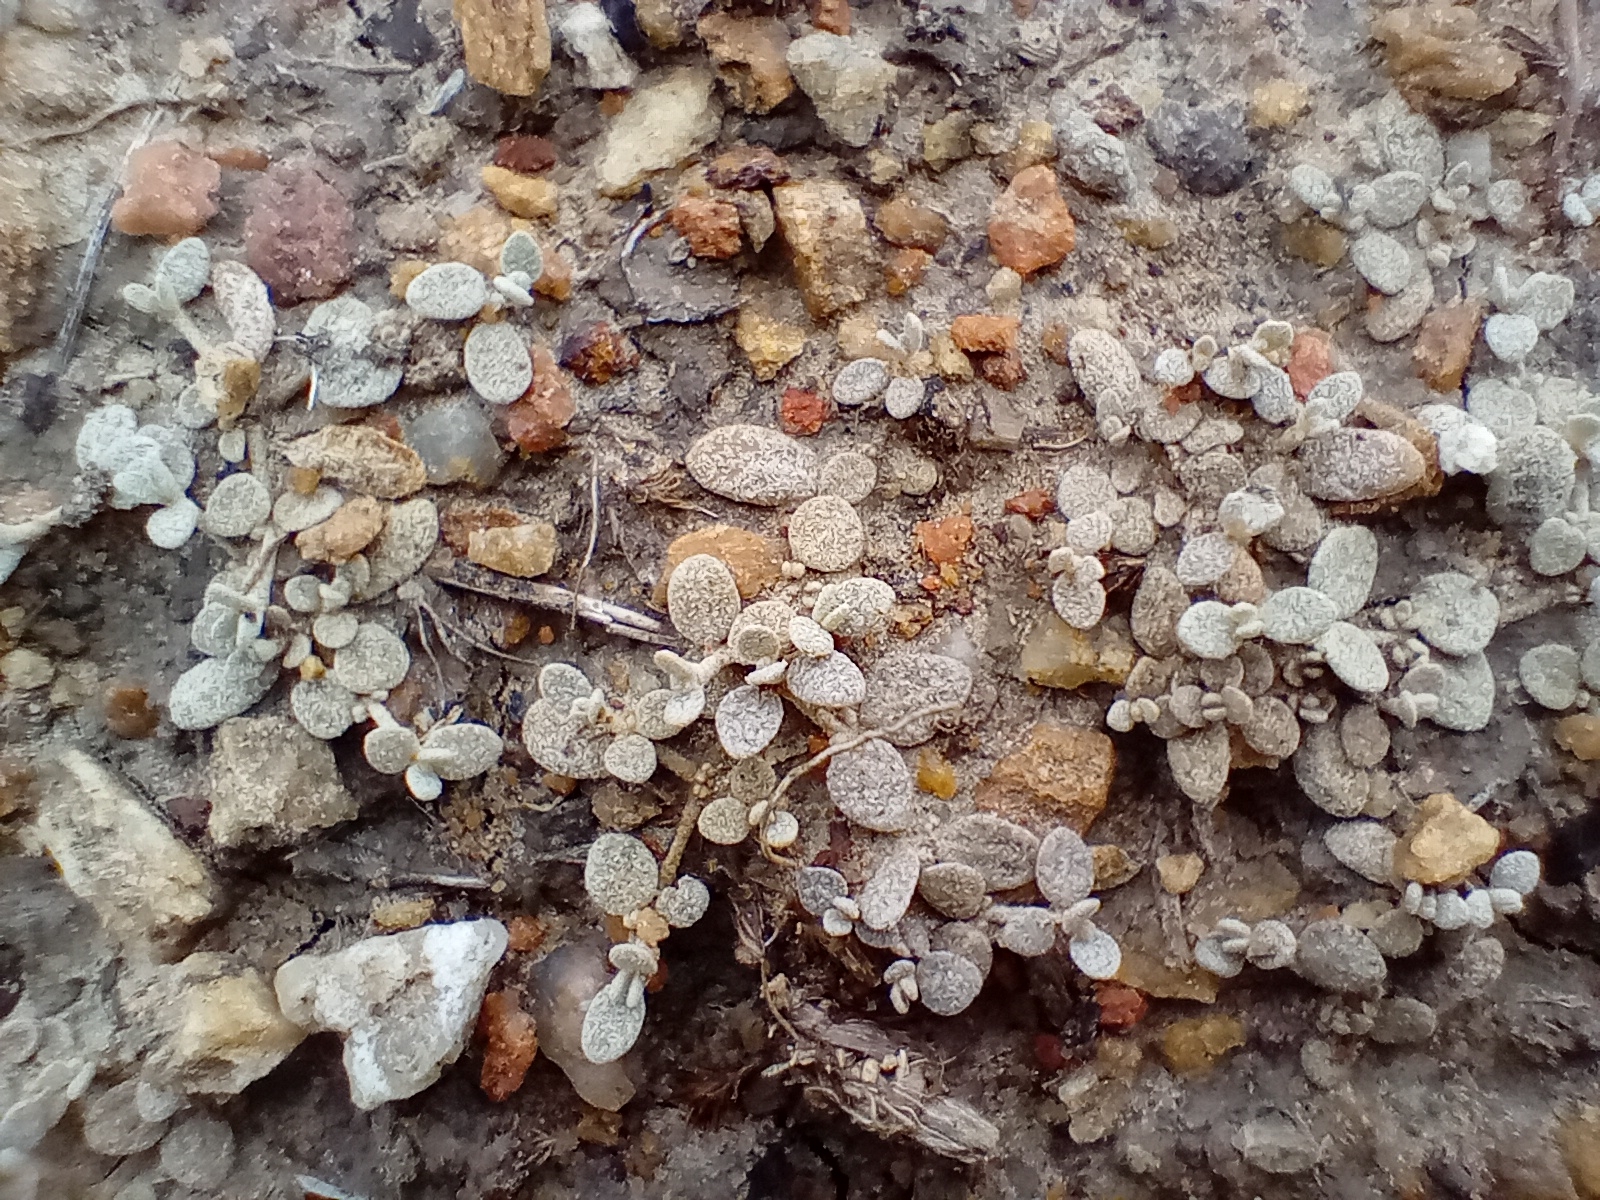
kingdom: Plantae
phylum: Tracheophyta
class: Magnoliopsida
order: Caryophyllales
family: Amaranthaceae
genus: Atriplex
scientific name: Atriplex buchananii
